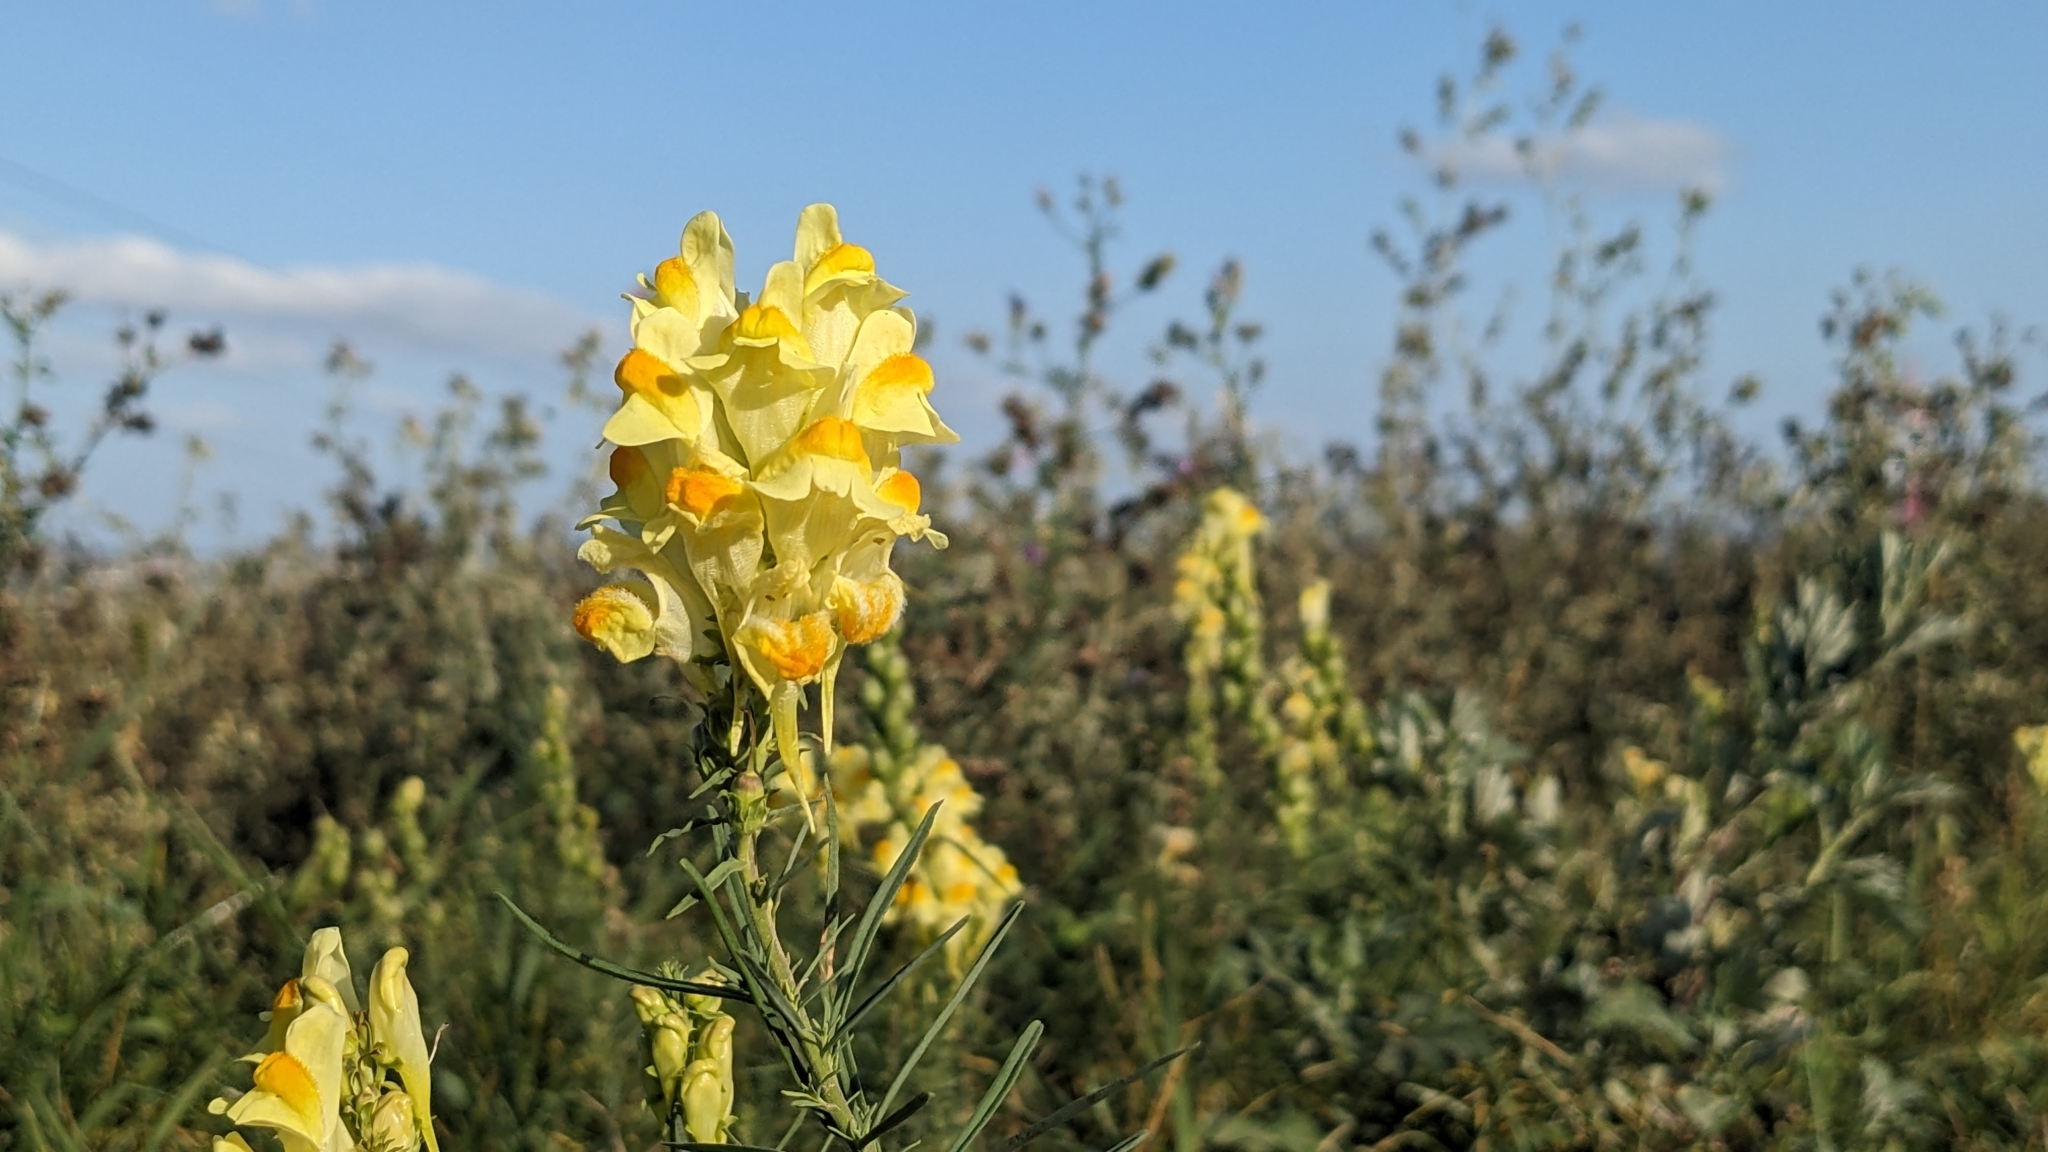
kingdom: Plantae
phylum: Tracheophyta
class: Magnoliopsida
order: Lamiales
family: Plantaginaceae
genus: Linaria
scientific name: Linaria vulgaris
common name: Butter and eggs
